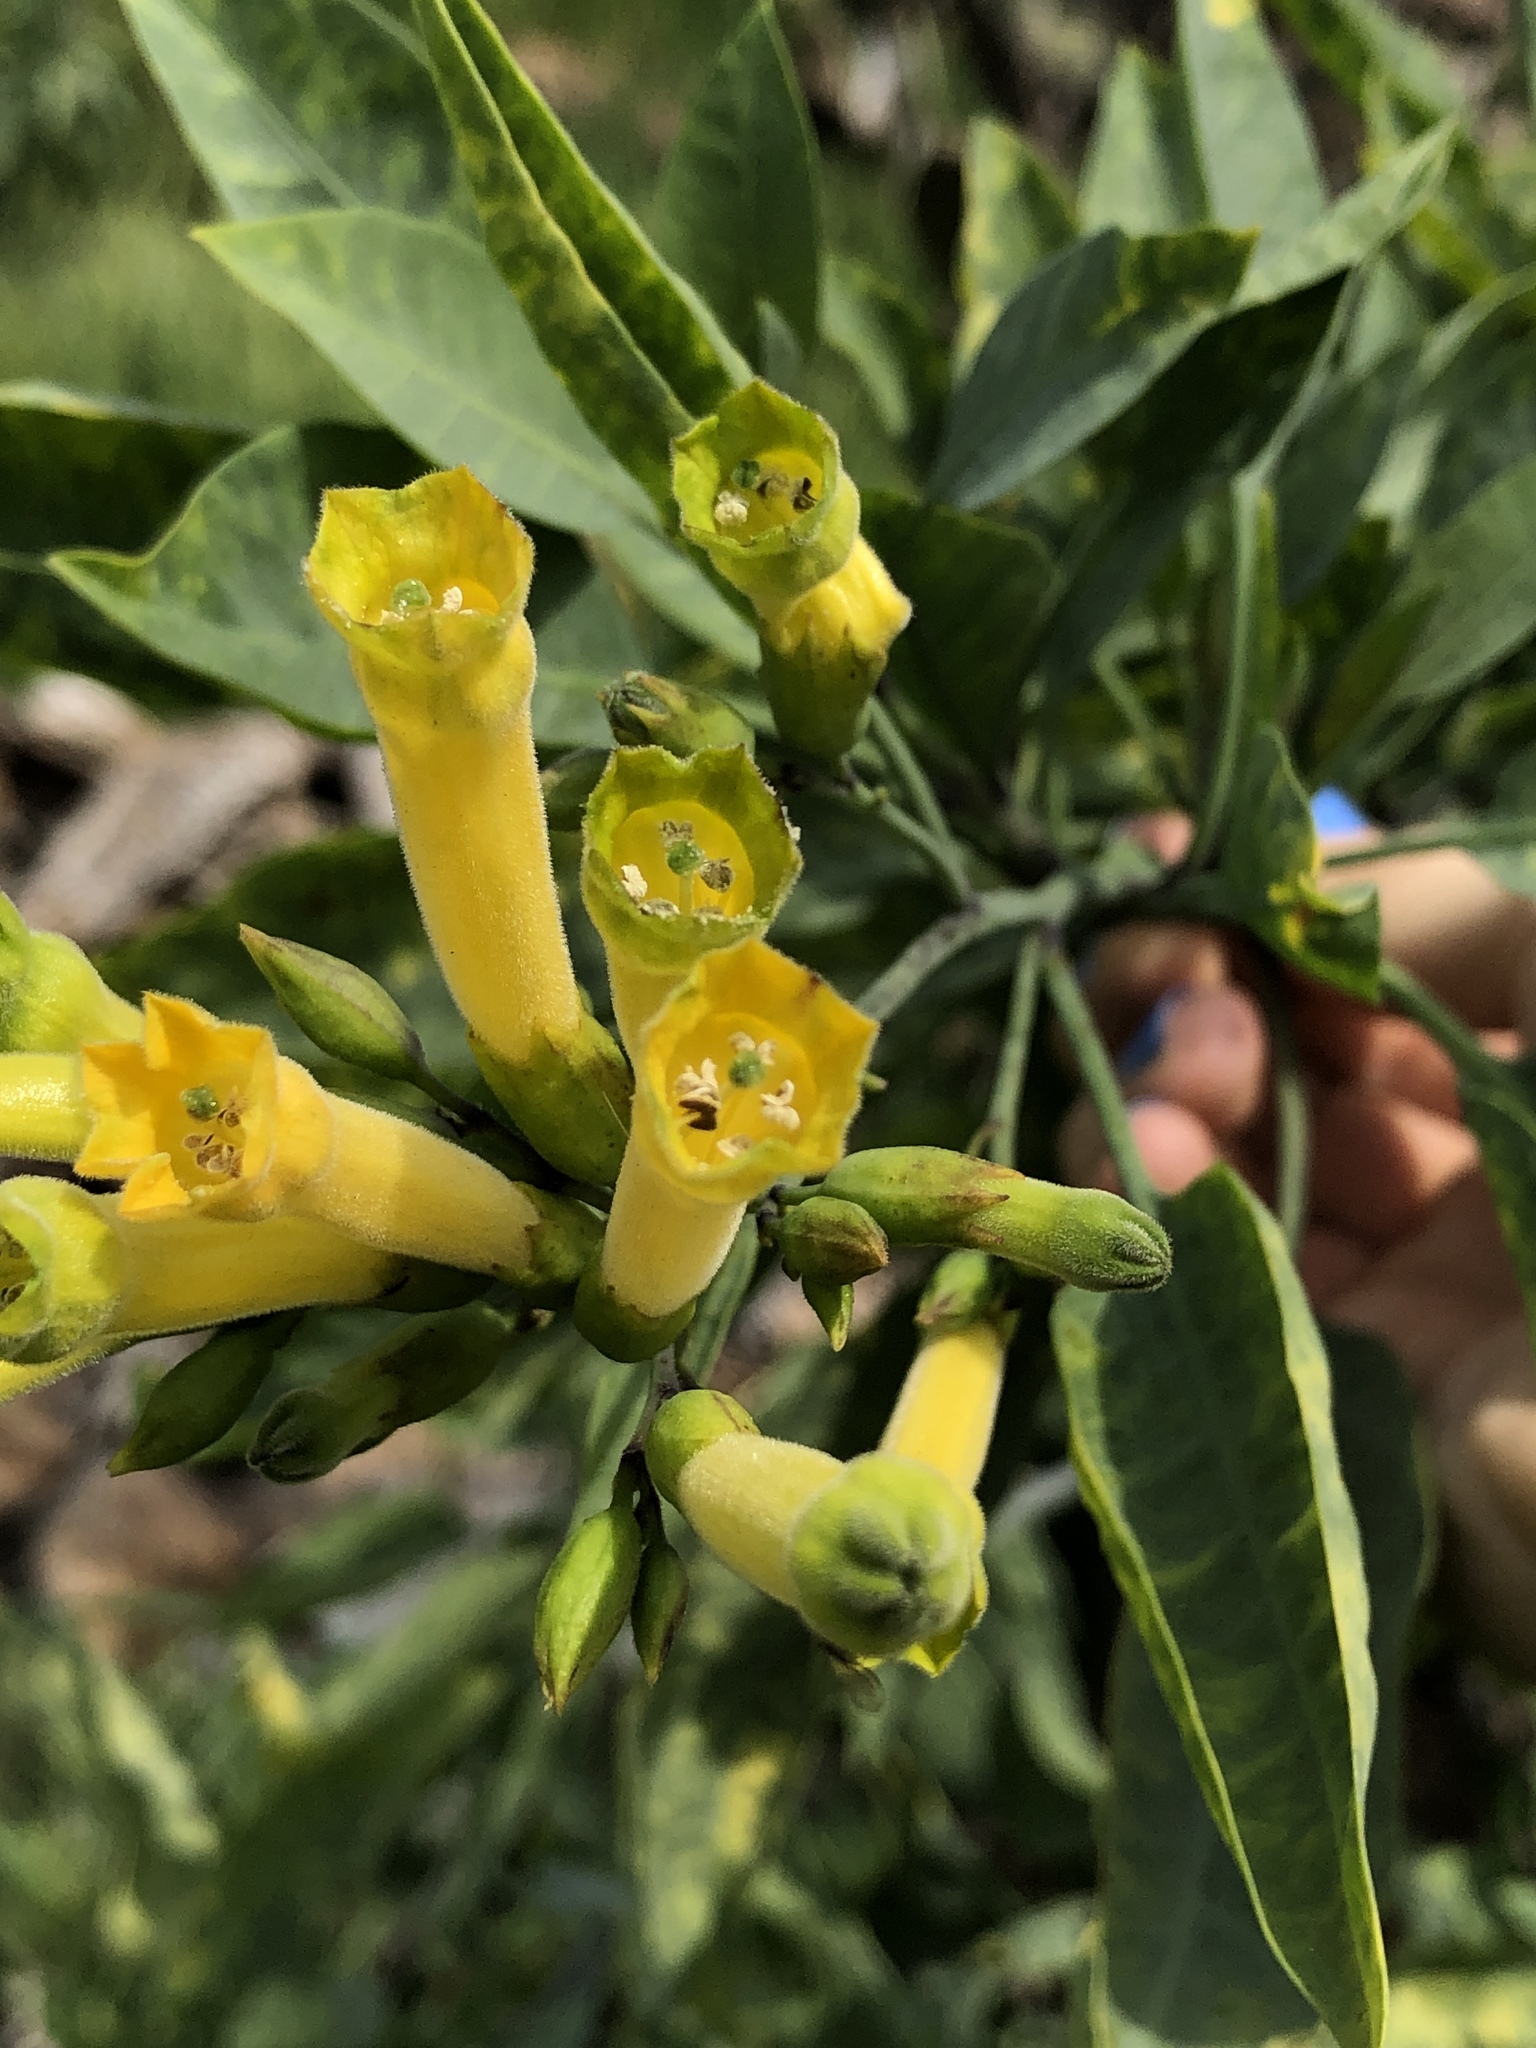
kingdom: Plantae
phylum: Tracheophyta
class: Magnoliopsida
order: Solanales
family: Solanaceae
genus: Nicotiana
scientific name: Nicotiana glauca
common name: Tree tobacco
